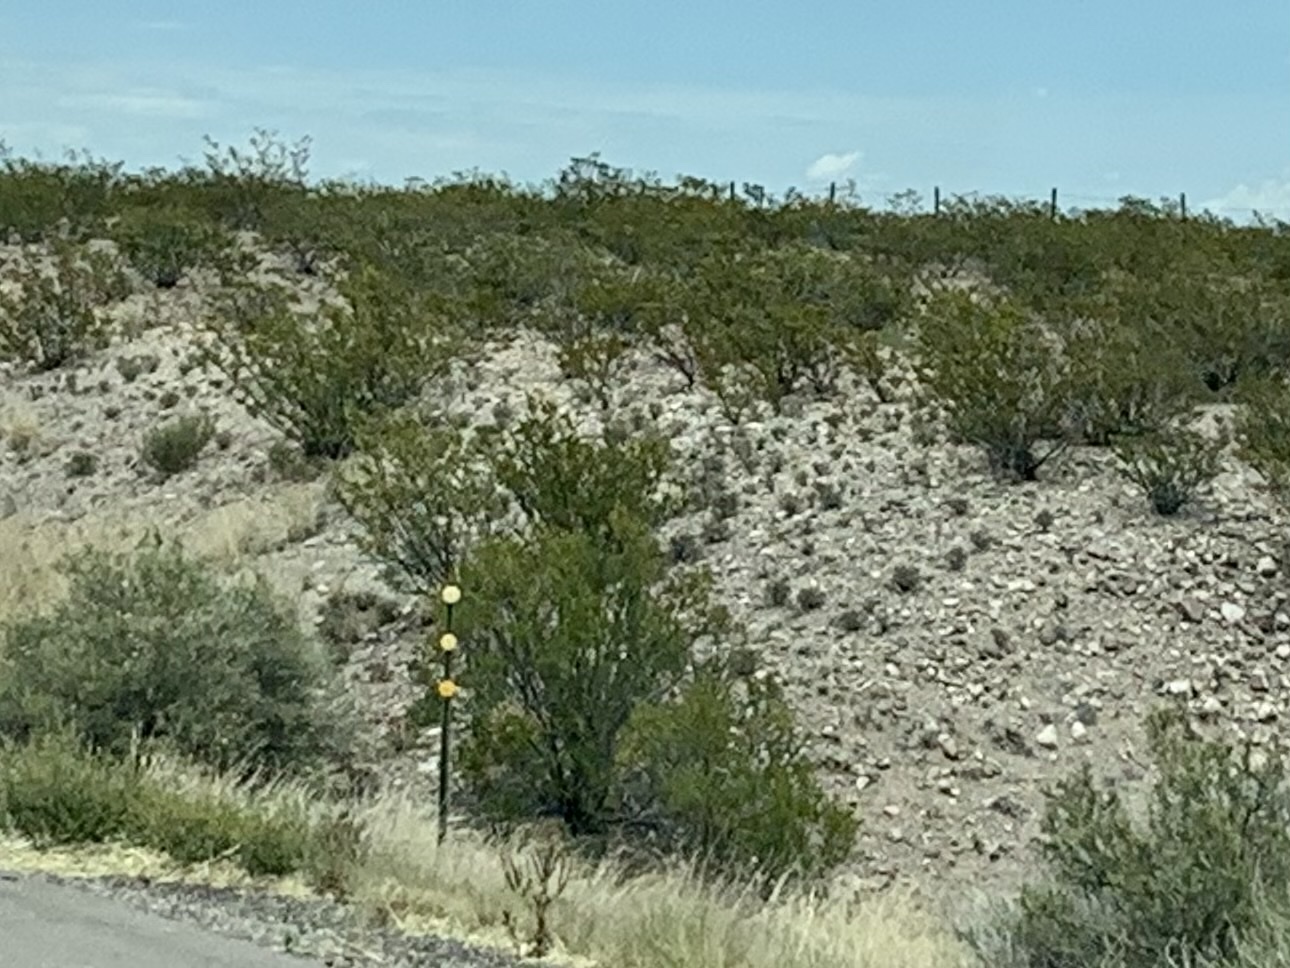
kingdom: Plantae
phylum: Tracheophyta
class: Magnoliopsida
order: Zygophyllales
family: Zygophyllaceae
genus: Larrea
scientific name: Larrea tridentata
